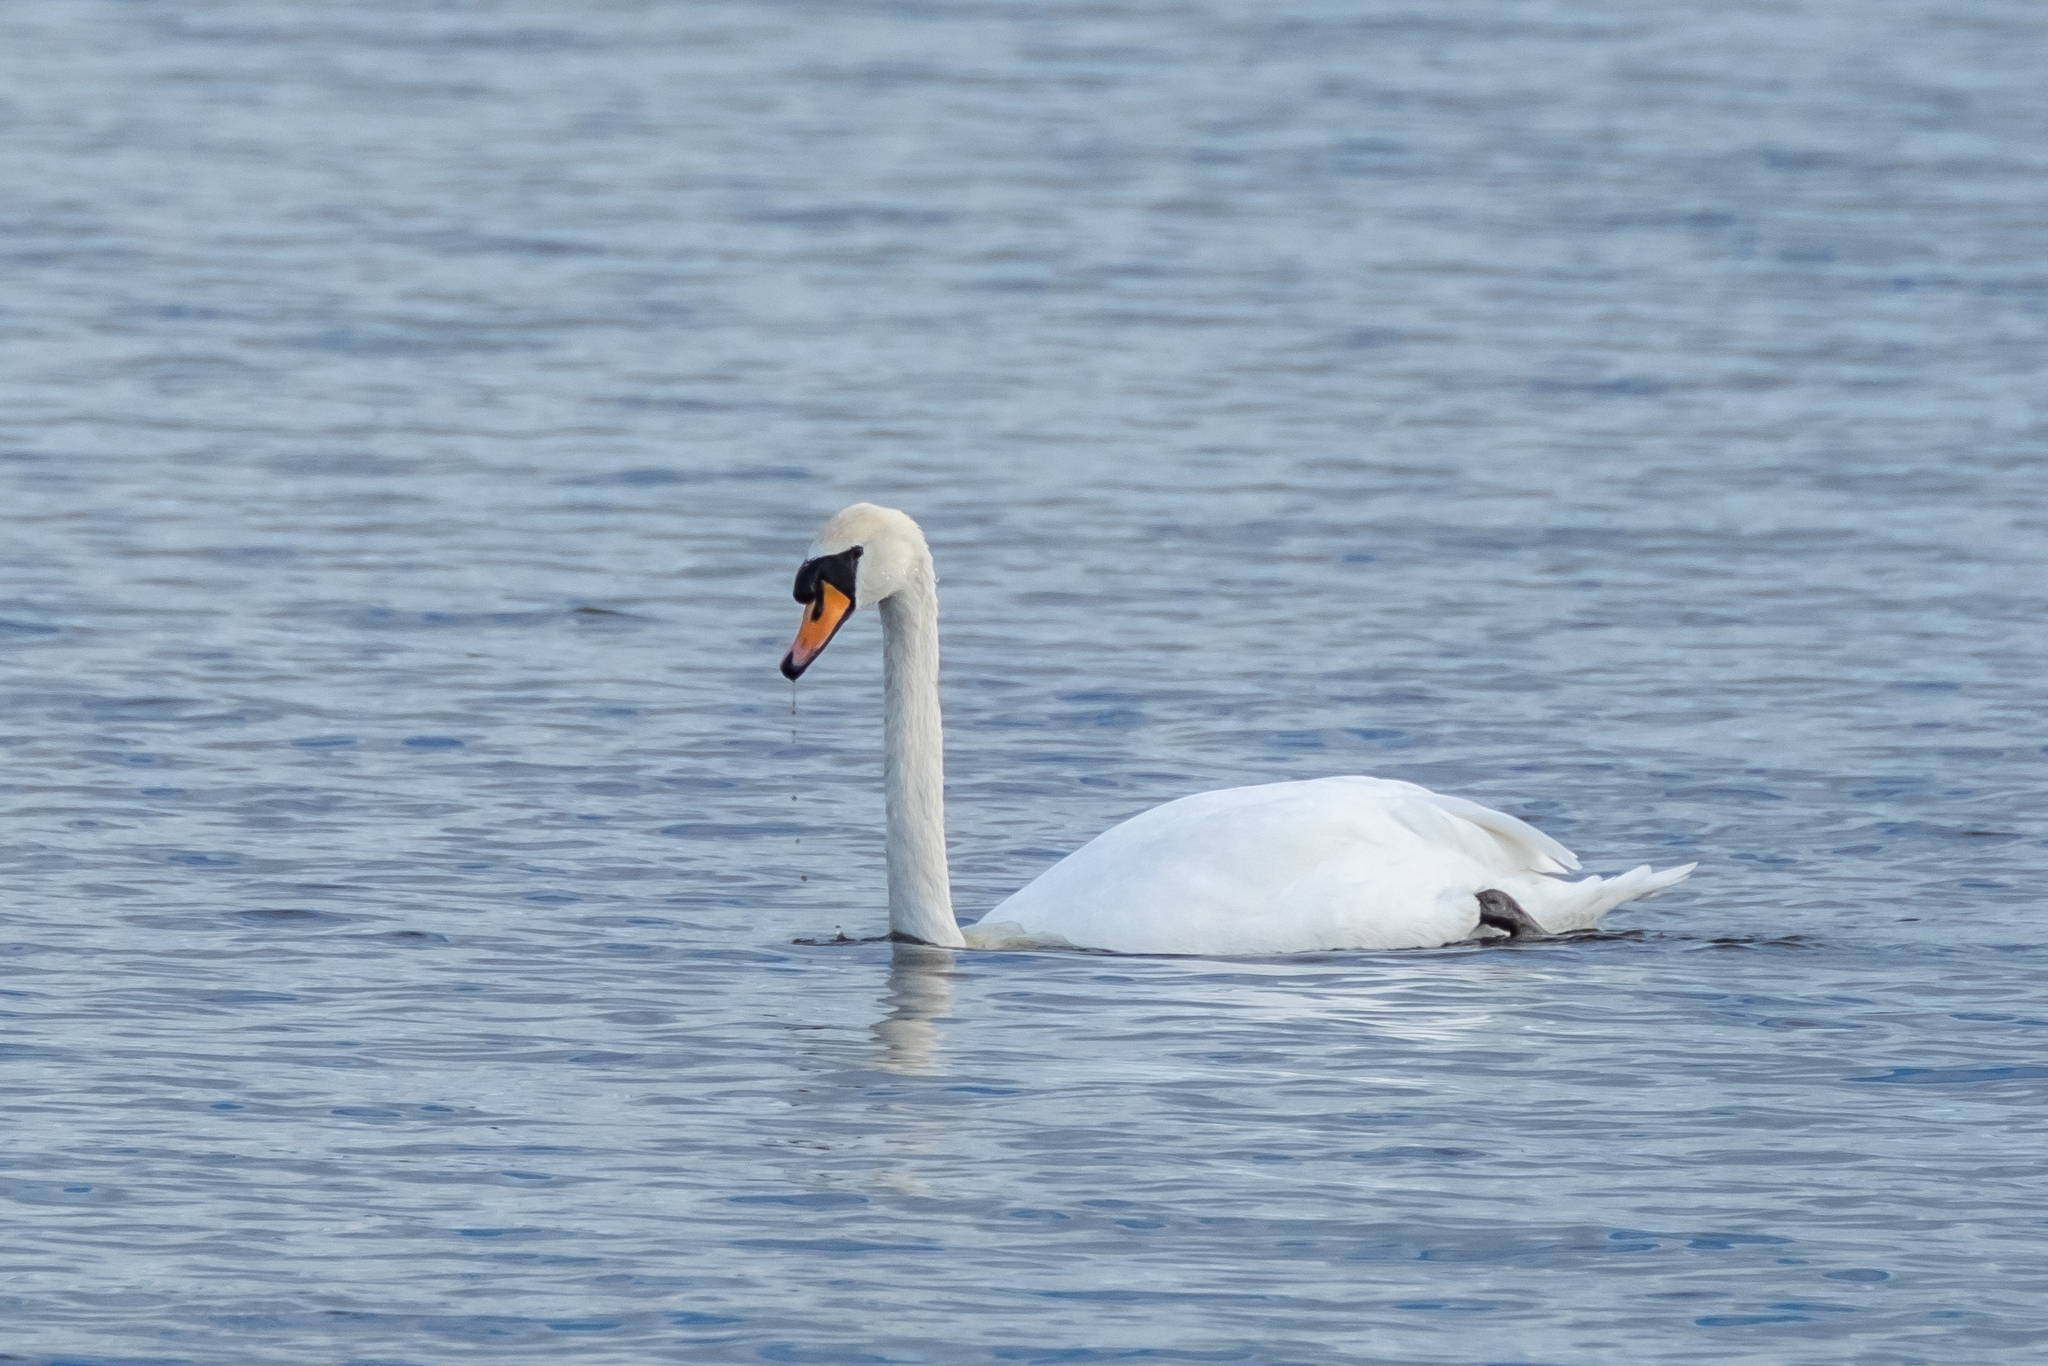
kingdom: Animalia
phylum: Chordata
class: Aves
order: Anseriformes
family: Anatidae
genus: Cygnus
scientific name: Cygnus olor
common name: Mute swan
